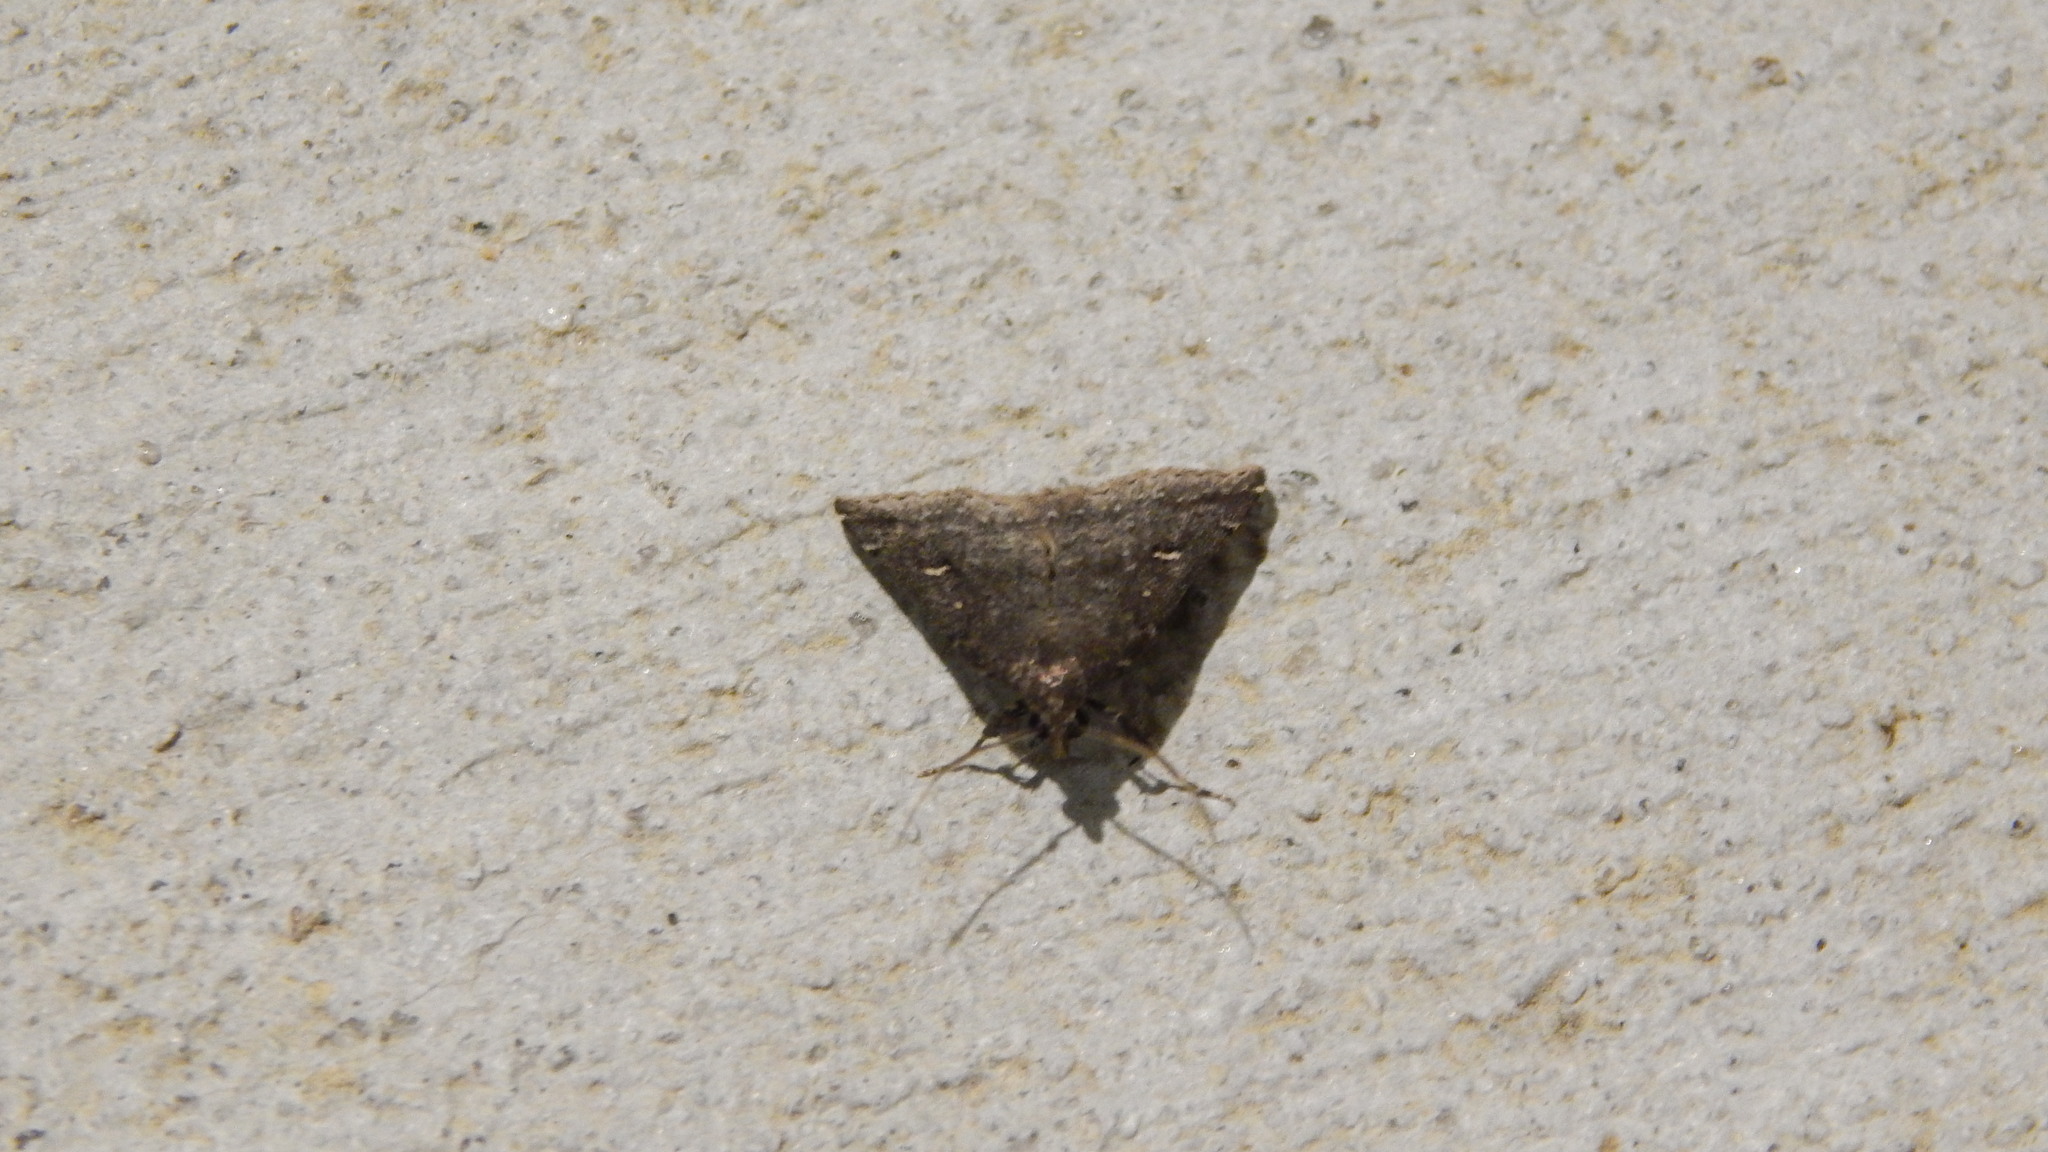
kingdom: Animalia
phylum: Arthropoda
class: Insecta
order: Lepidoptera
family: Erebidae
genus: Tetanolita
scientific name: Tetanolita mynesalis
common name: Smoky tetanolita moth
